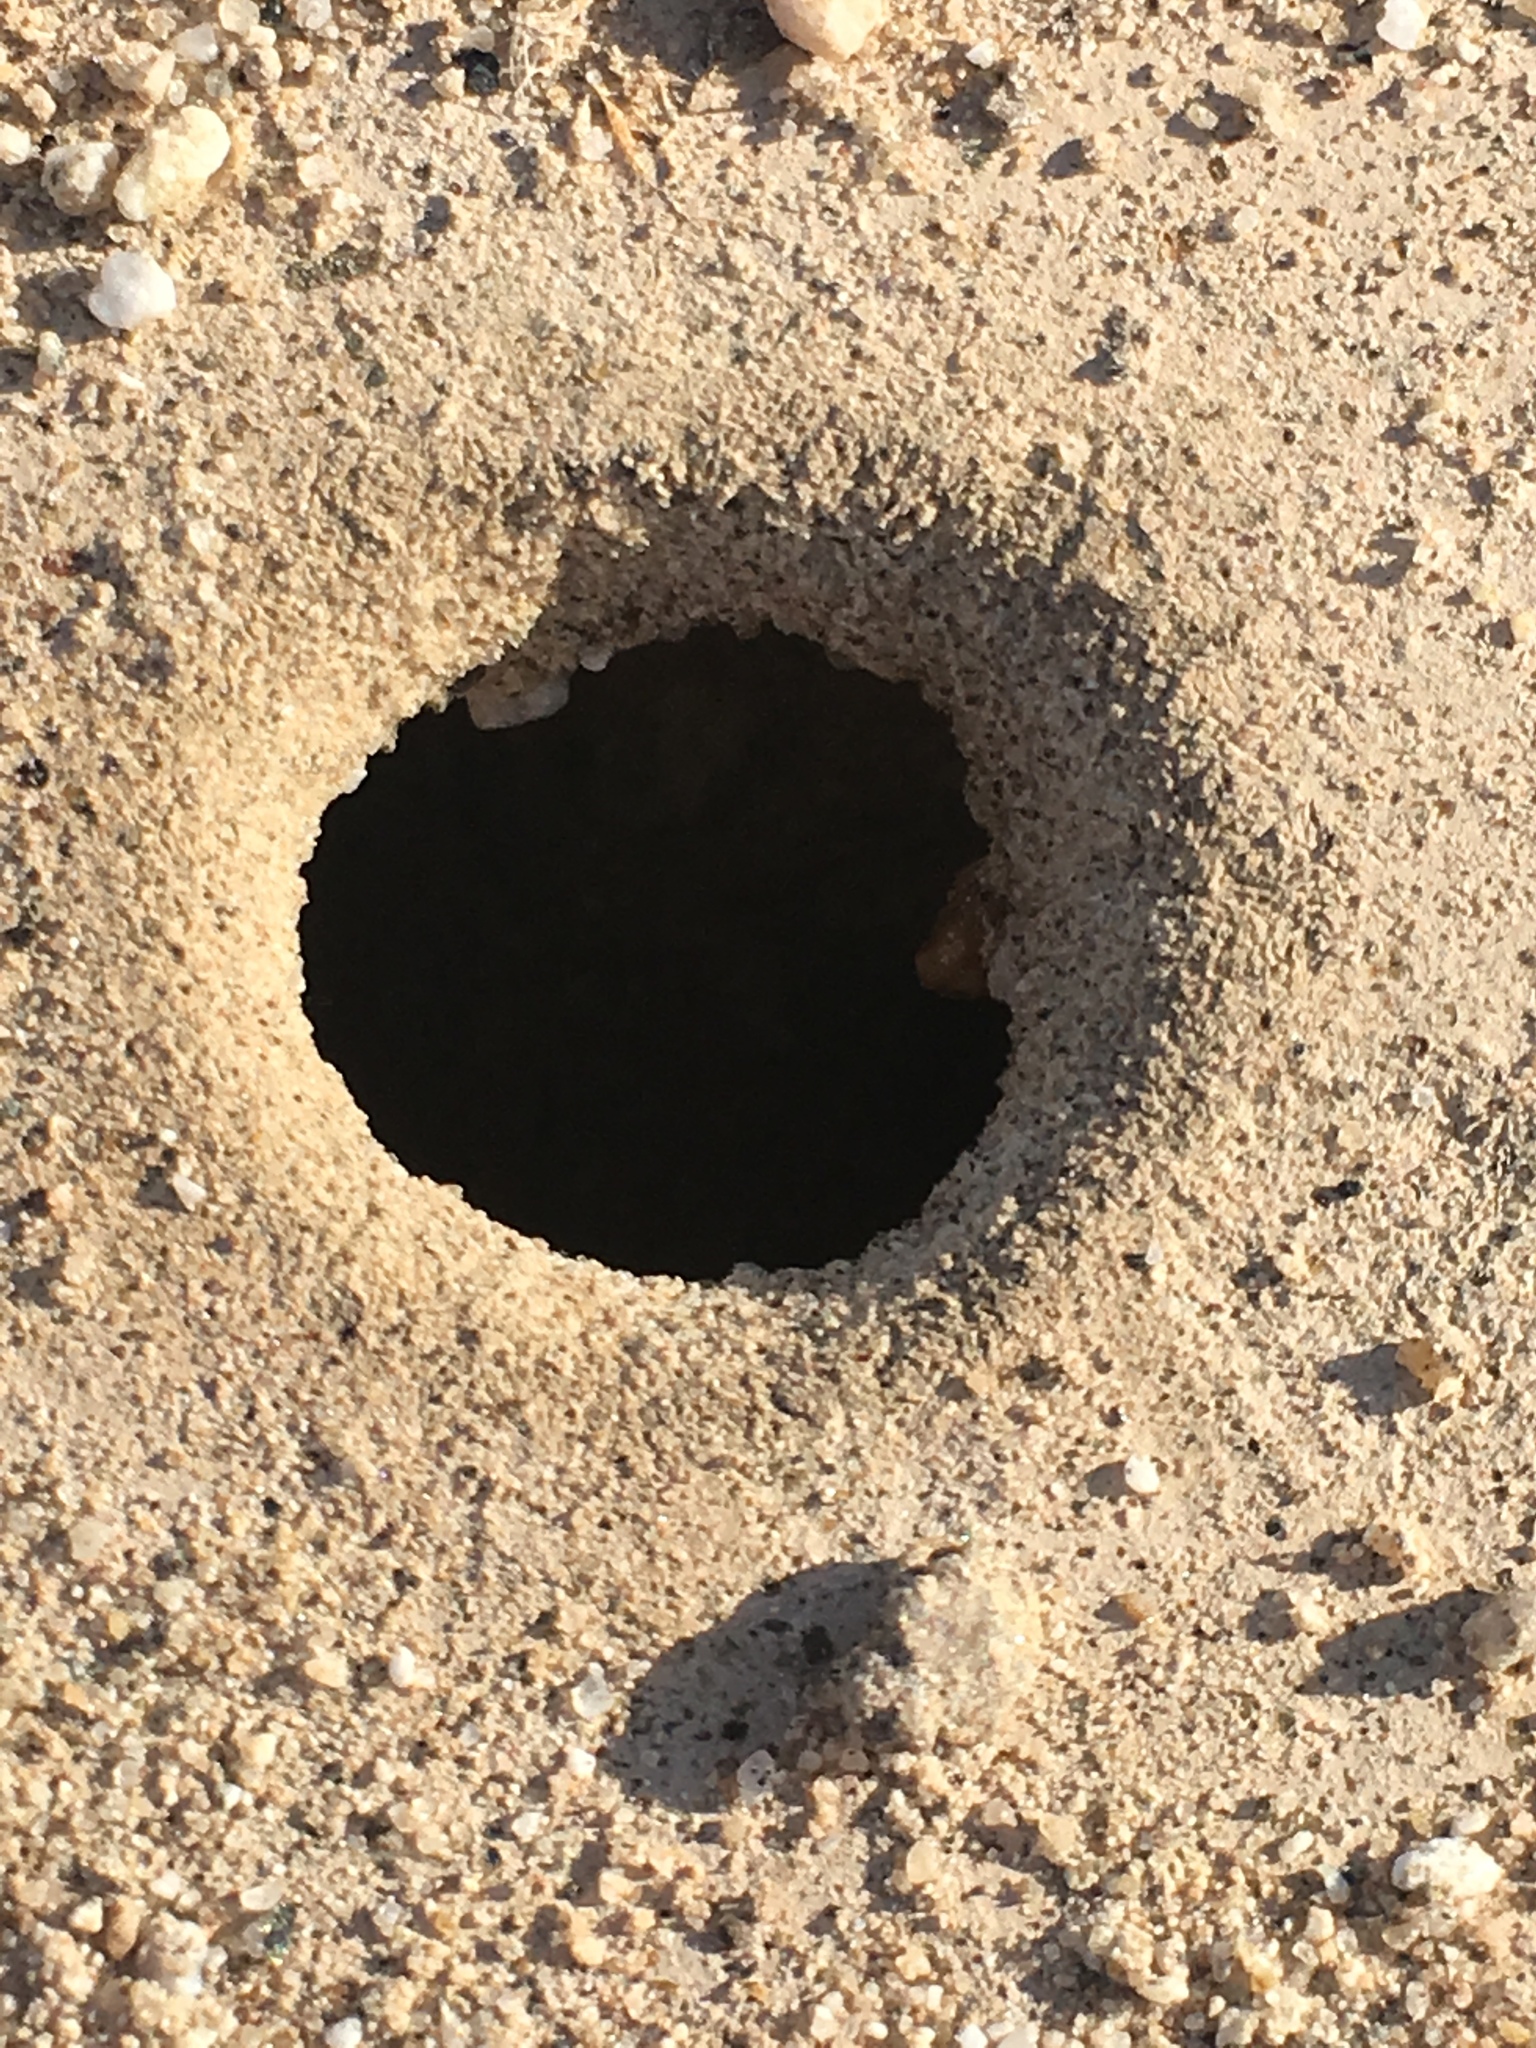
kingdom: Animalia
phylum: Arthropoda
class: Insecta
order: Hymenoptera
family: Formicidae
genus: Myrmecocystus
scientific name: Myrmecocystus flaviceps
